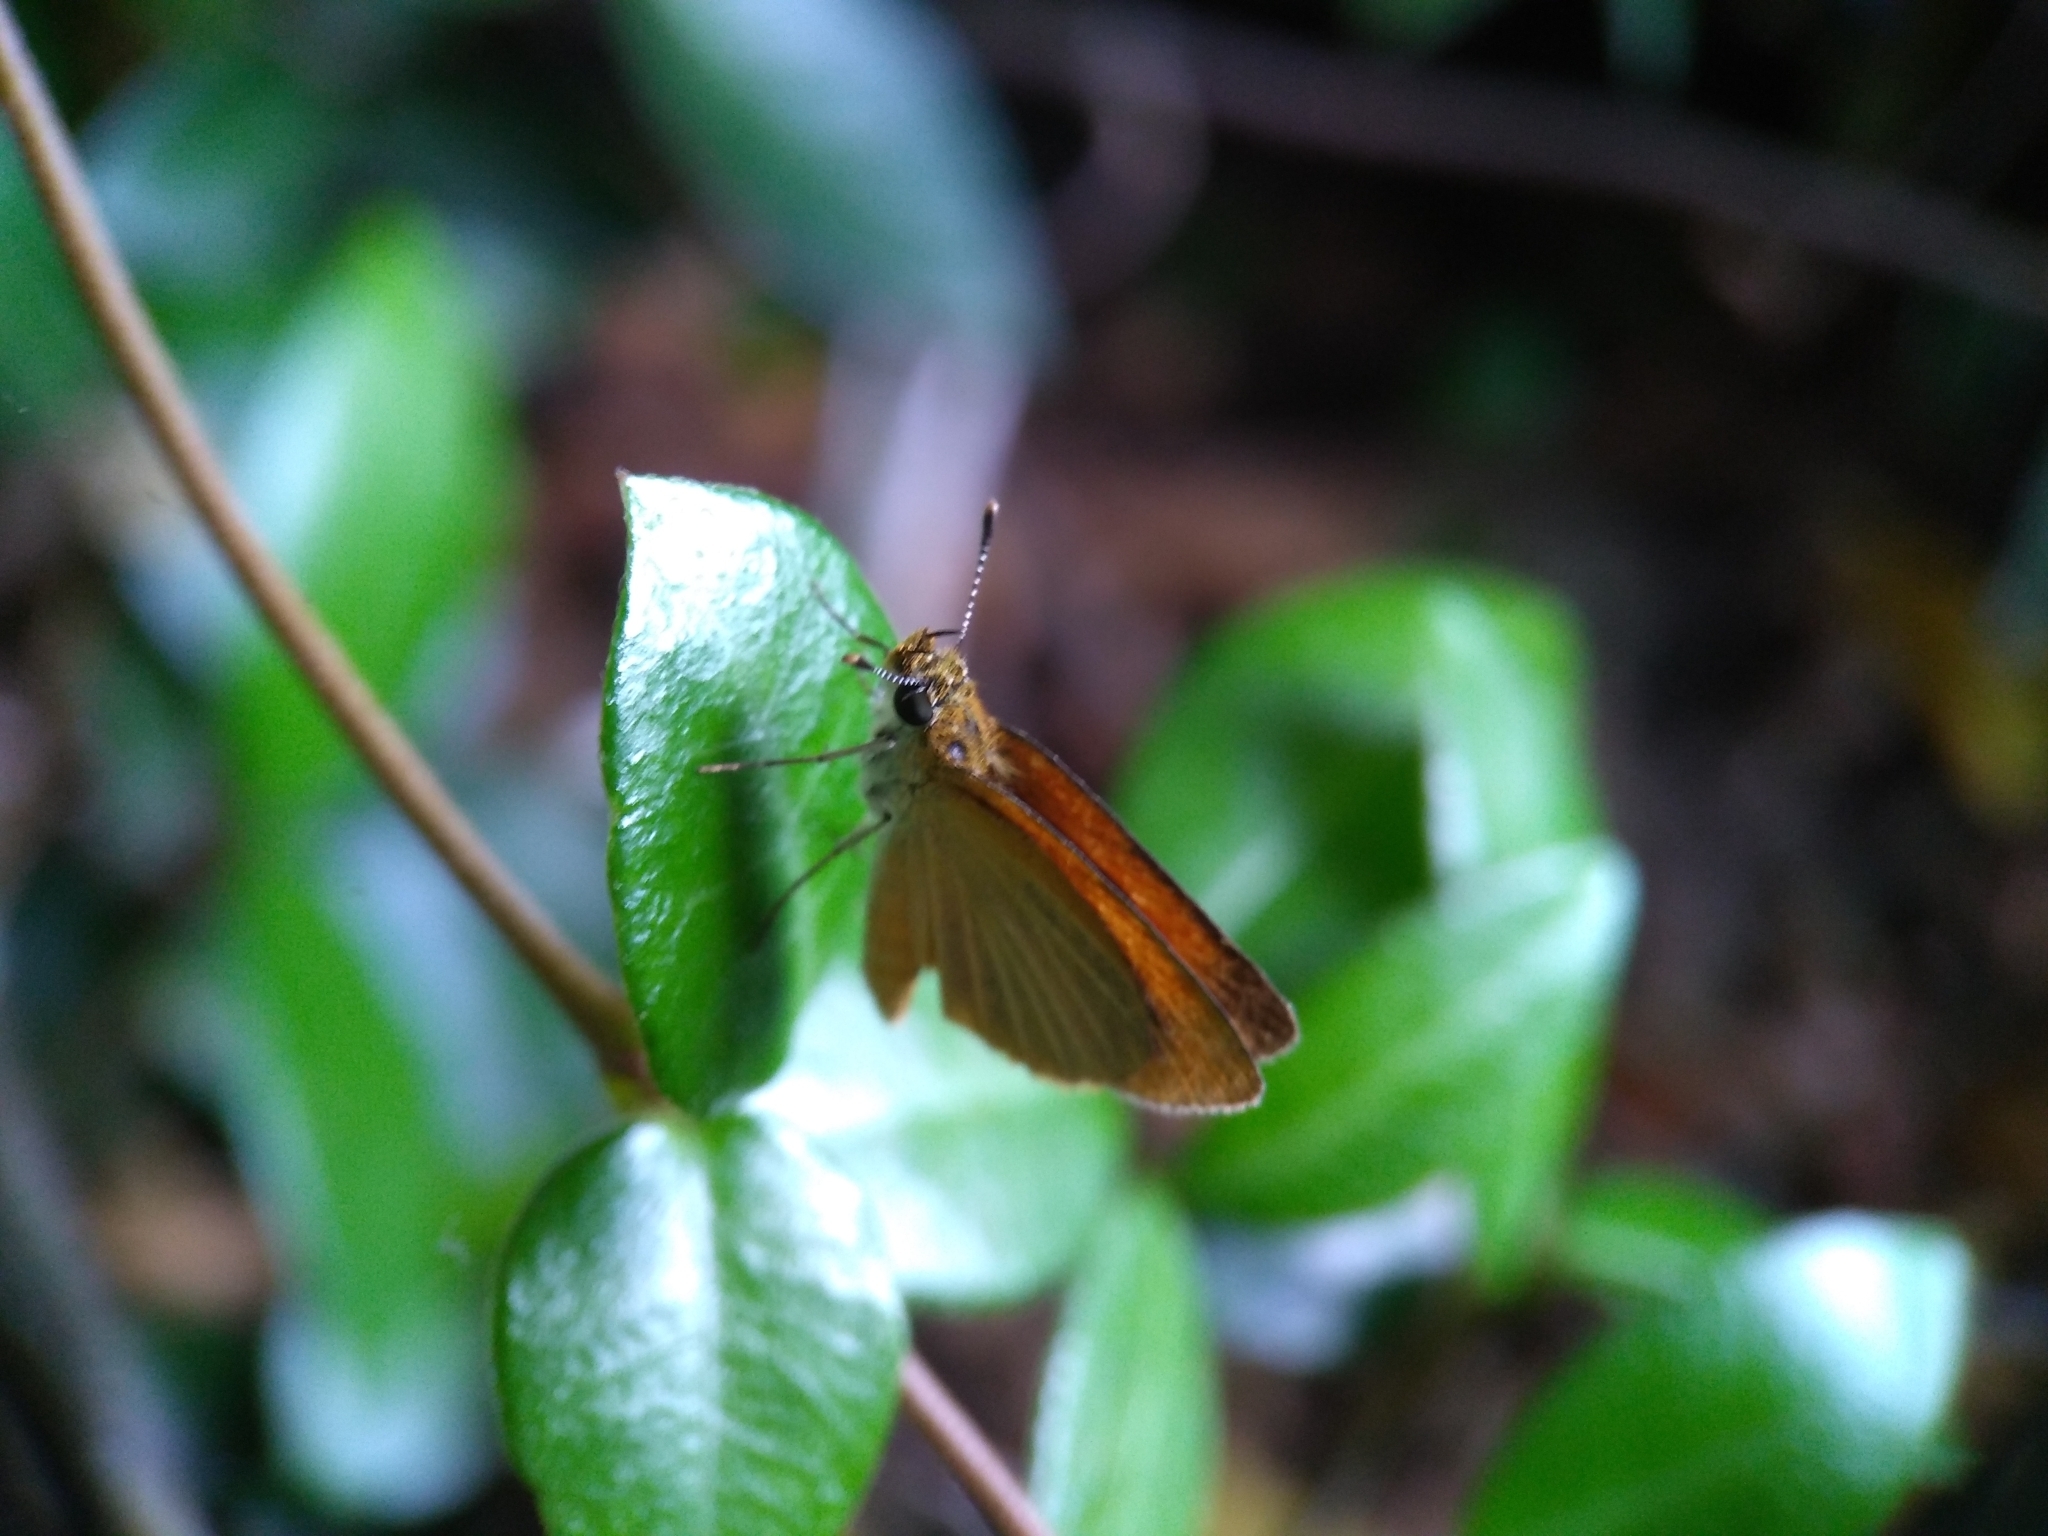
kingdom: Animalia
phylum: Arthropoda
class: Insecta
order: Lepidoptera
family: Hesperiidae
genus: Ancyloxypha
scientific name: Ancyloxypha numitor
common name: Least skipper
